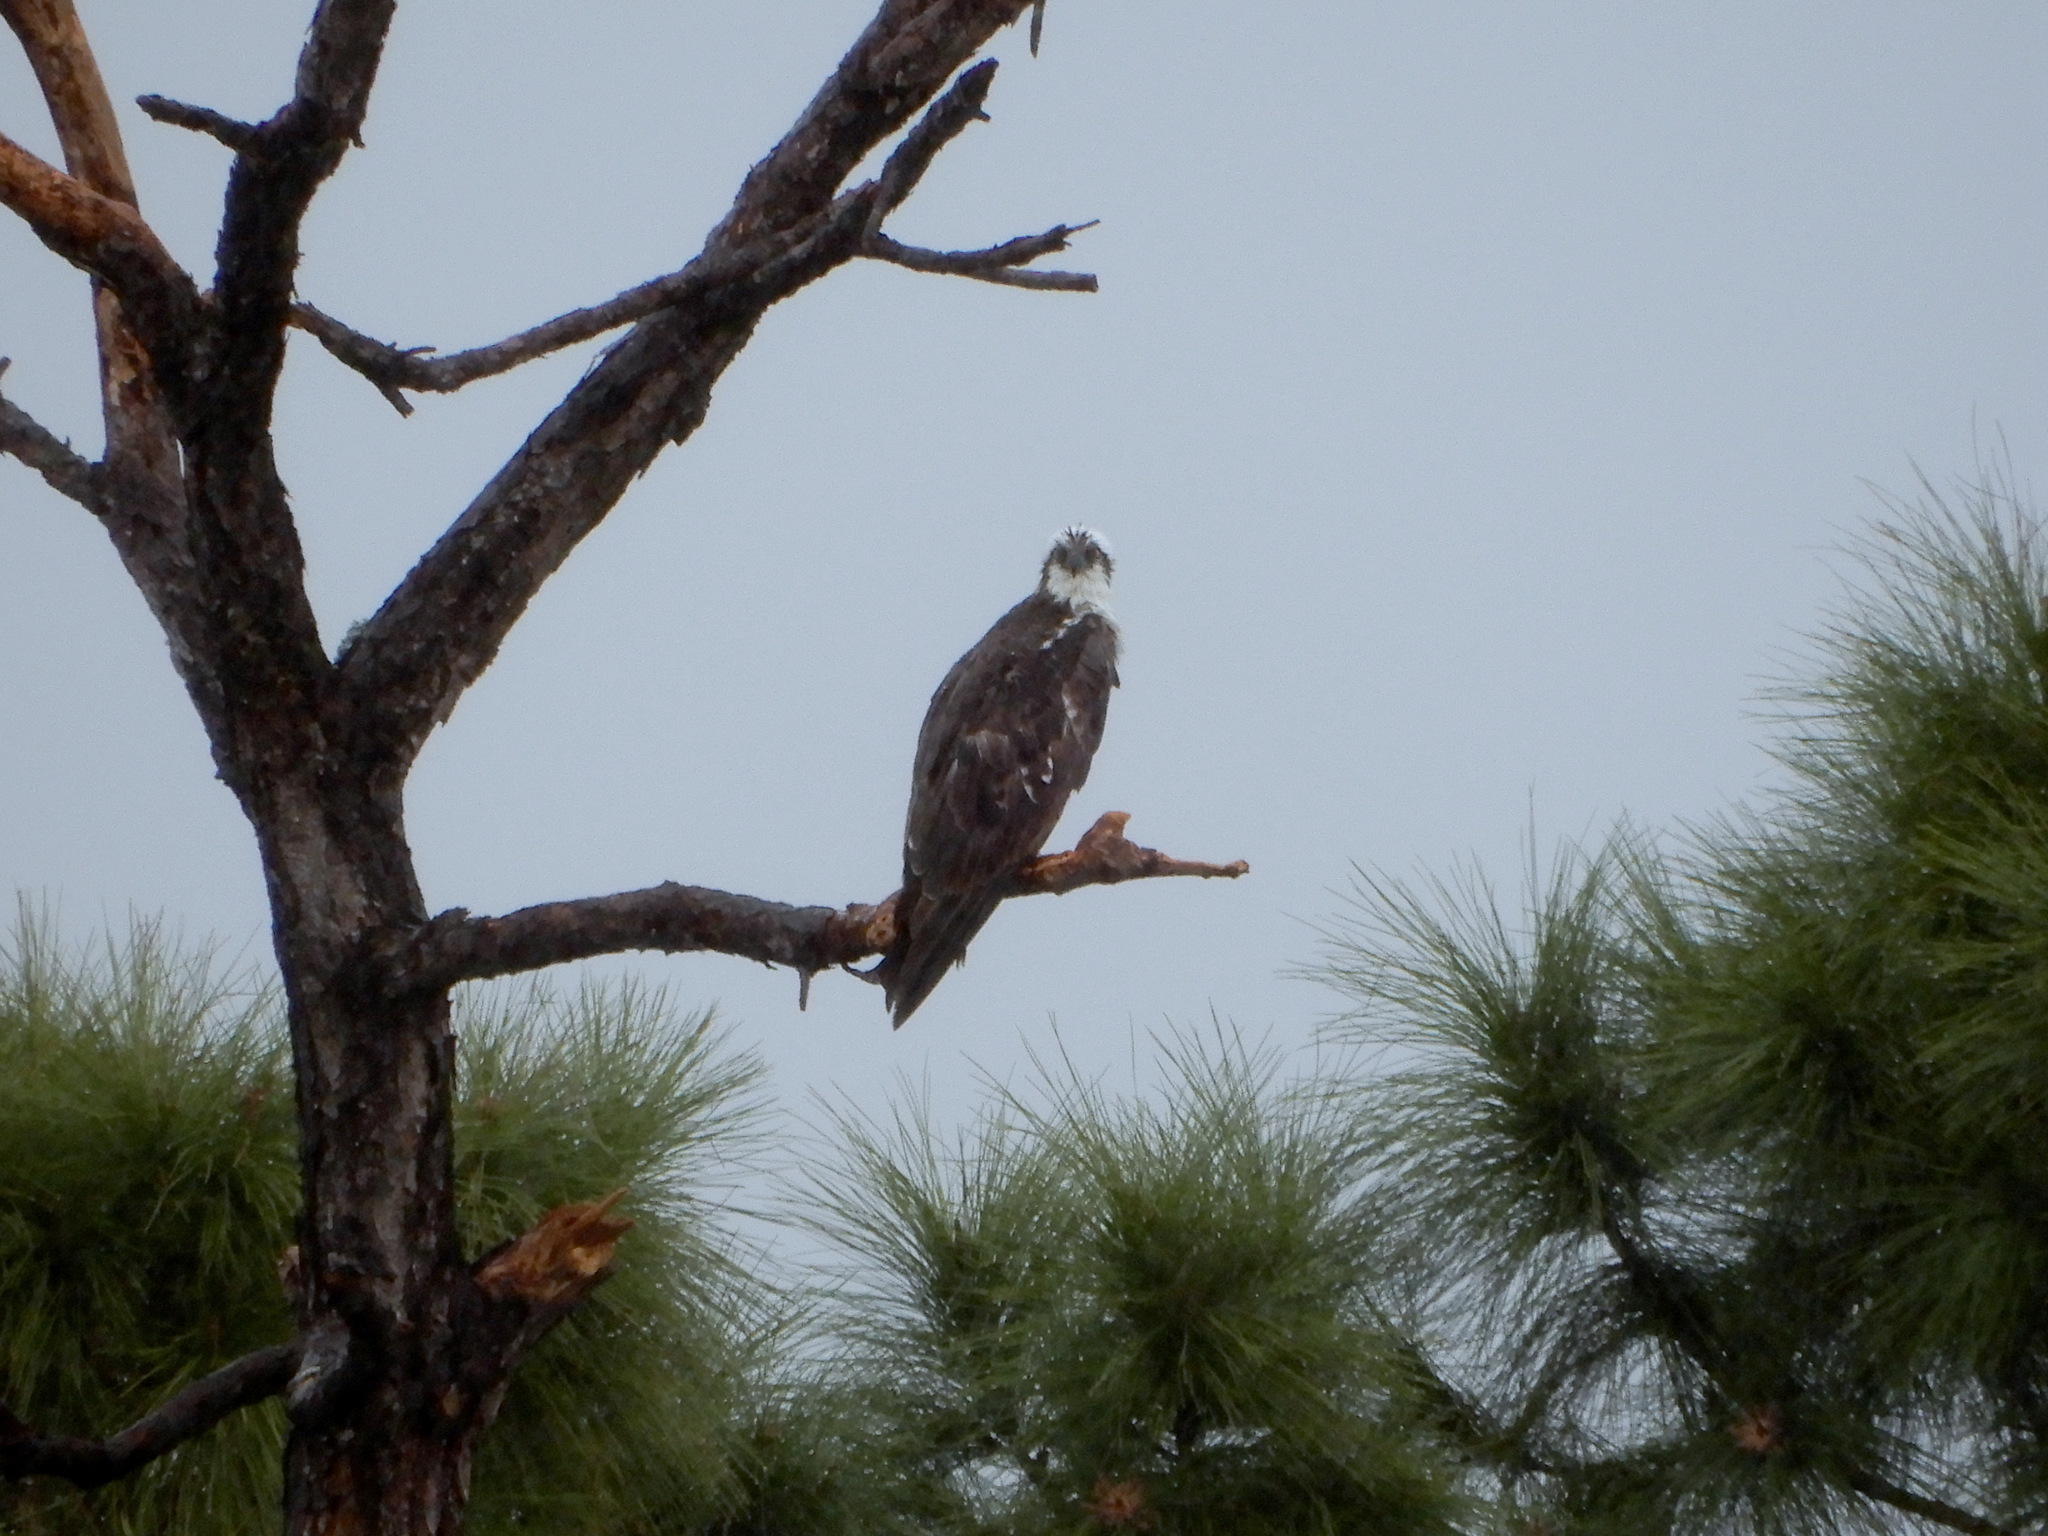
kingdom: Animalia
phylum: Chordata
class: Aves
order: Accipitriformes
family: Pandionidae
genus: Pandion
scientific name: Pandion haliaetus
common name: Osprey
